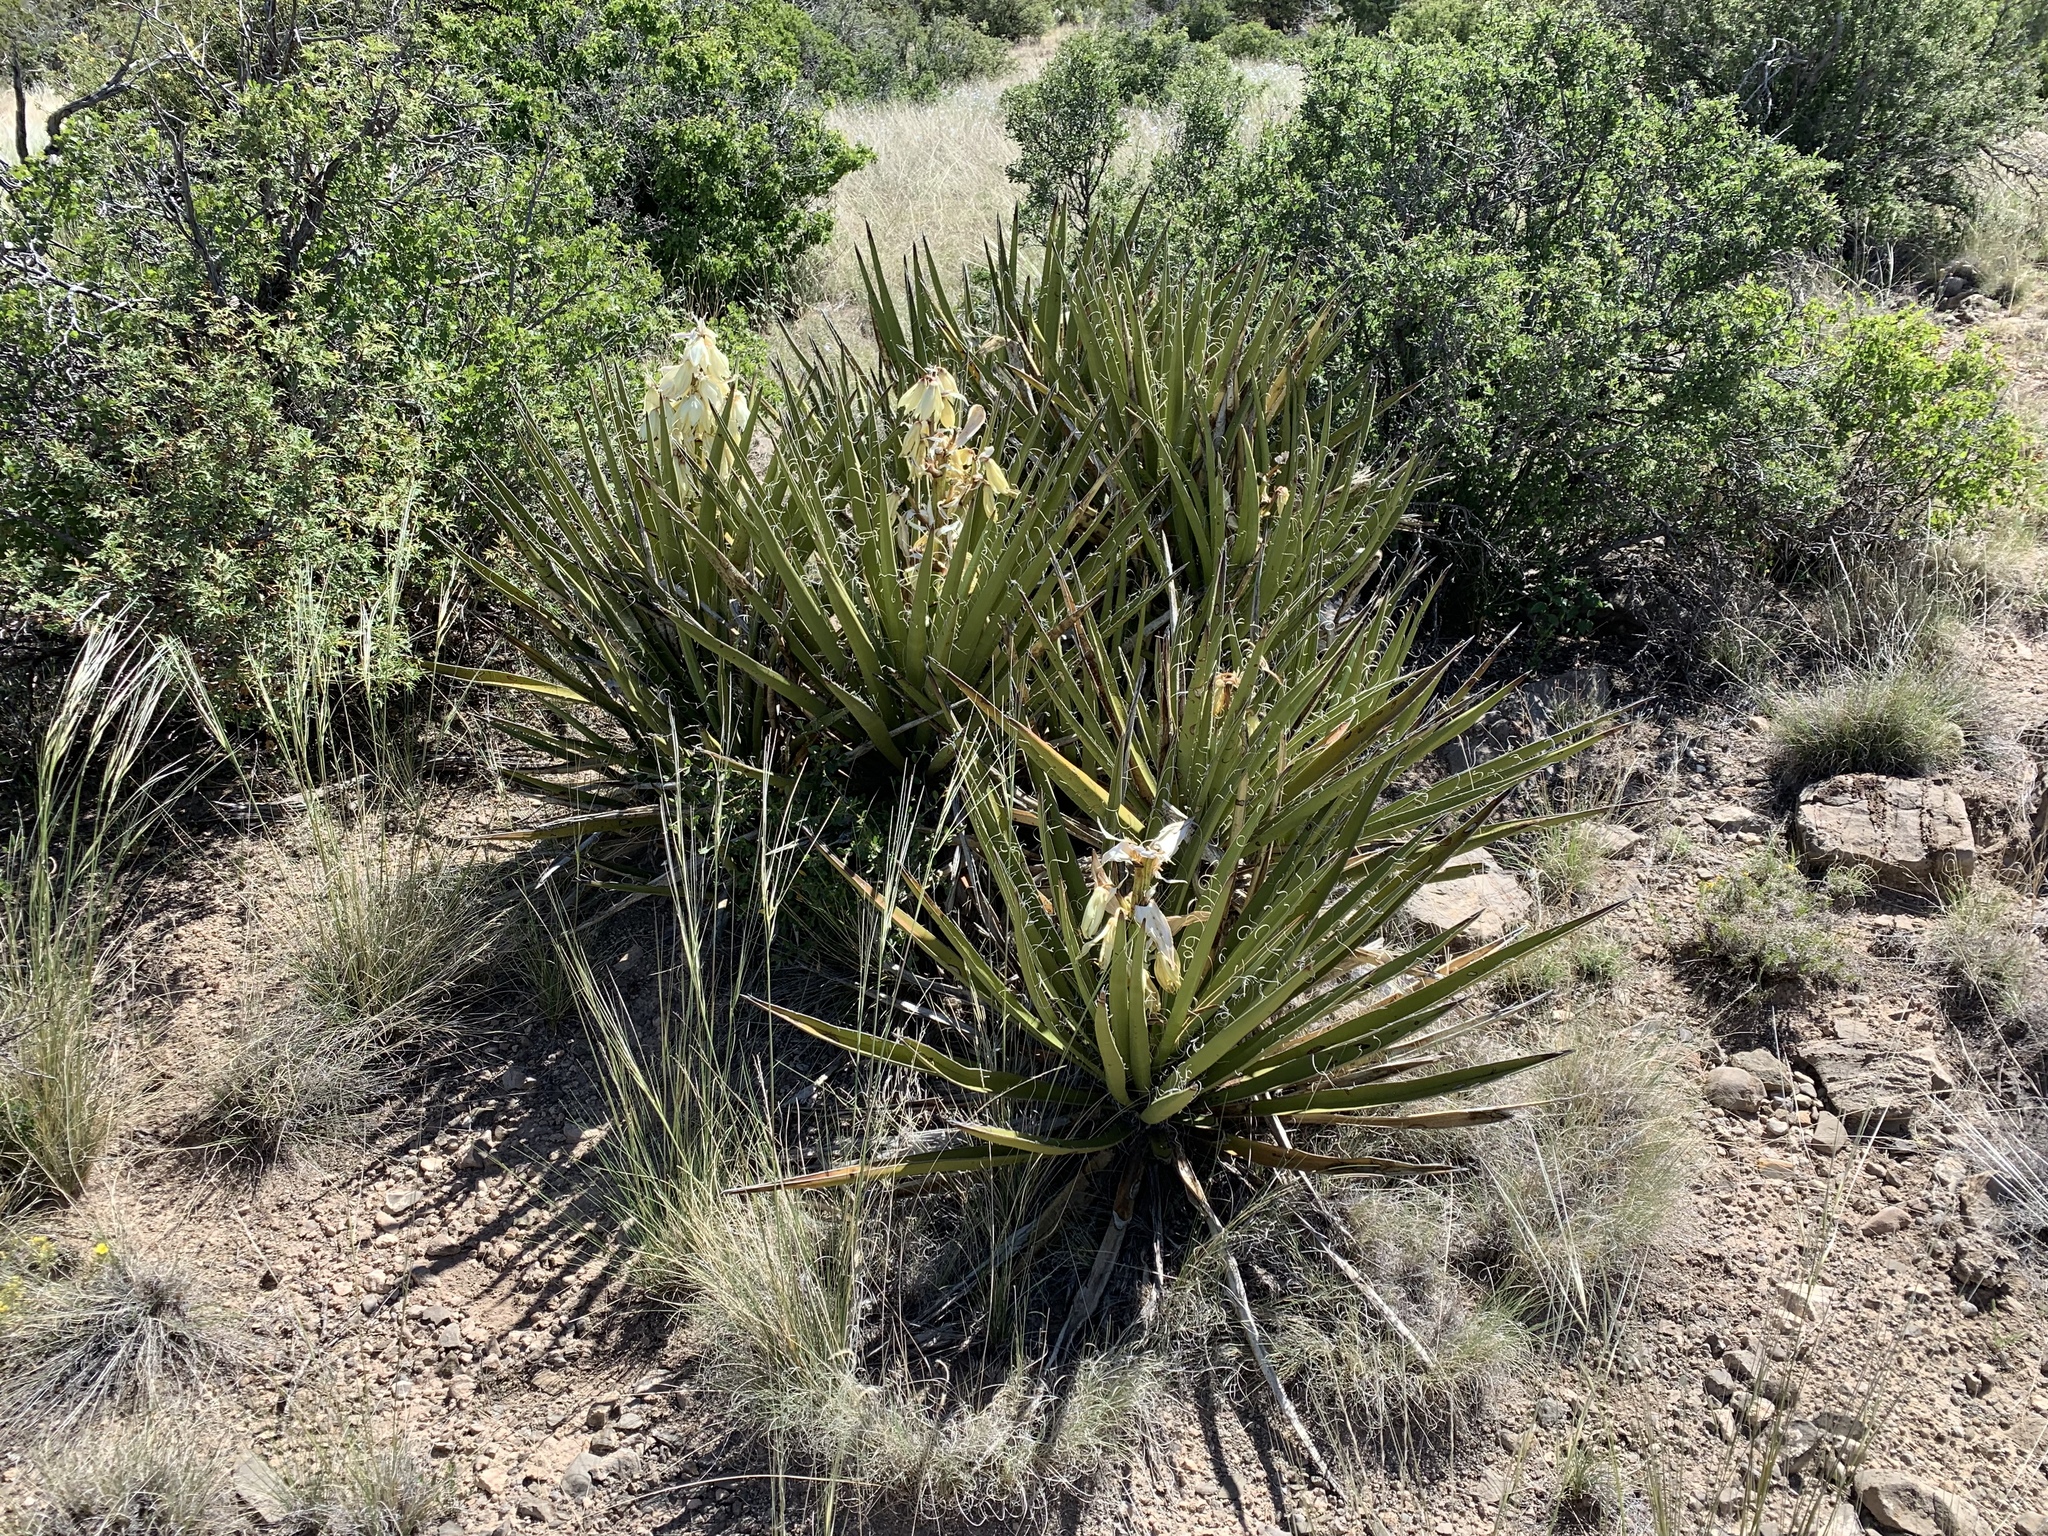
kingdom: Plantae
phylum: Tracheophyta
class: Liliopsida
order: Asparagales
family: Asparagaceae
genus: Yucca
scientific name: Yucca baccata
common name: Banana yucca
